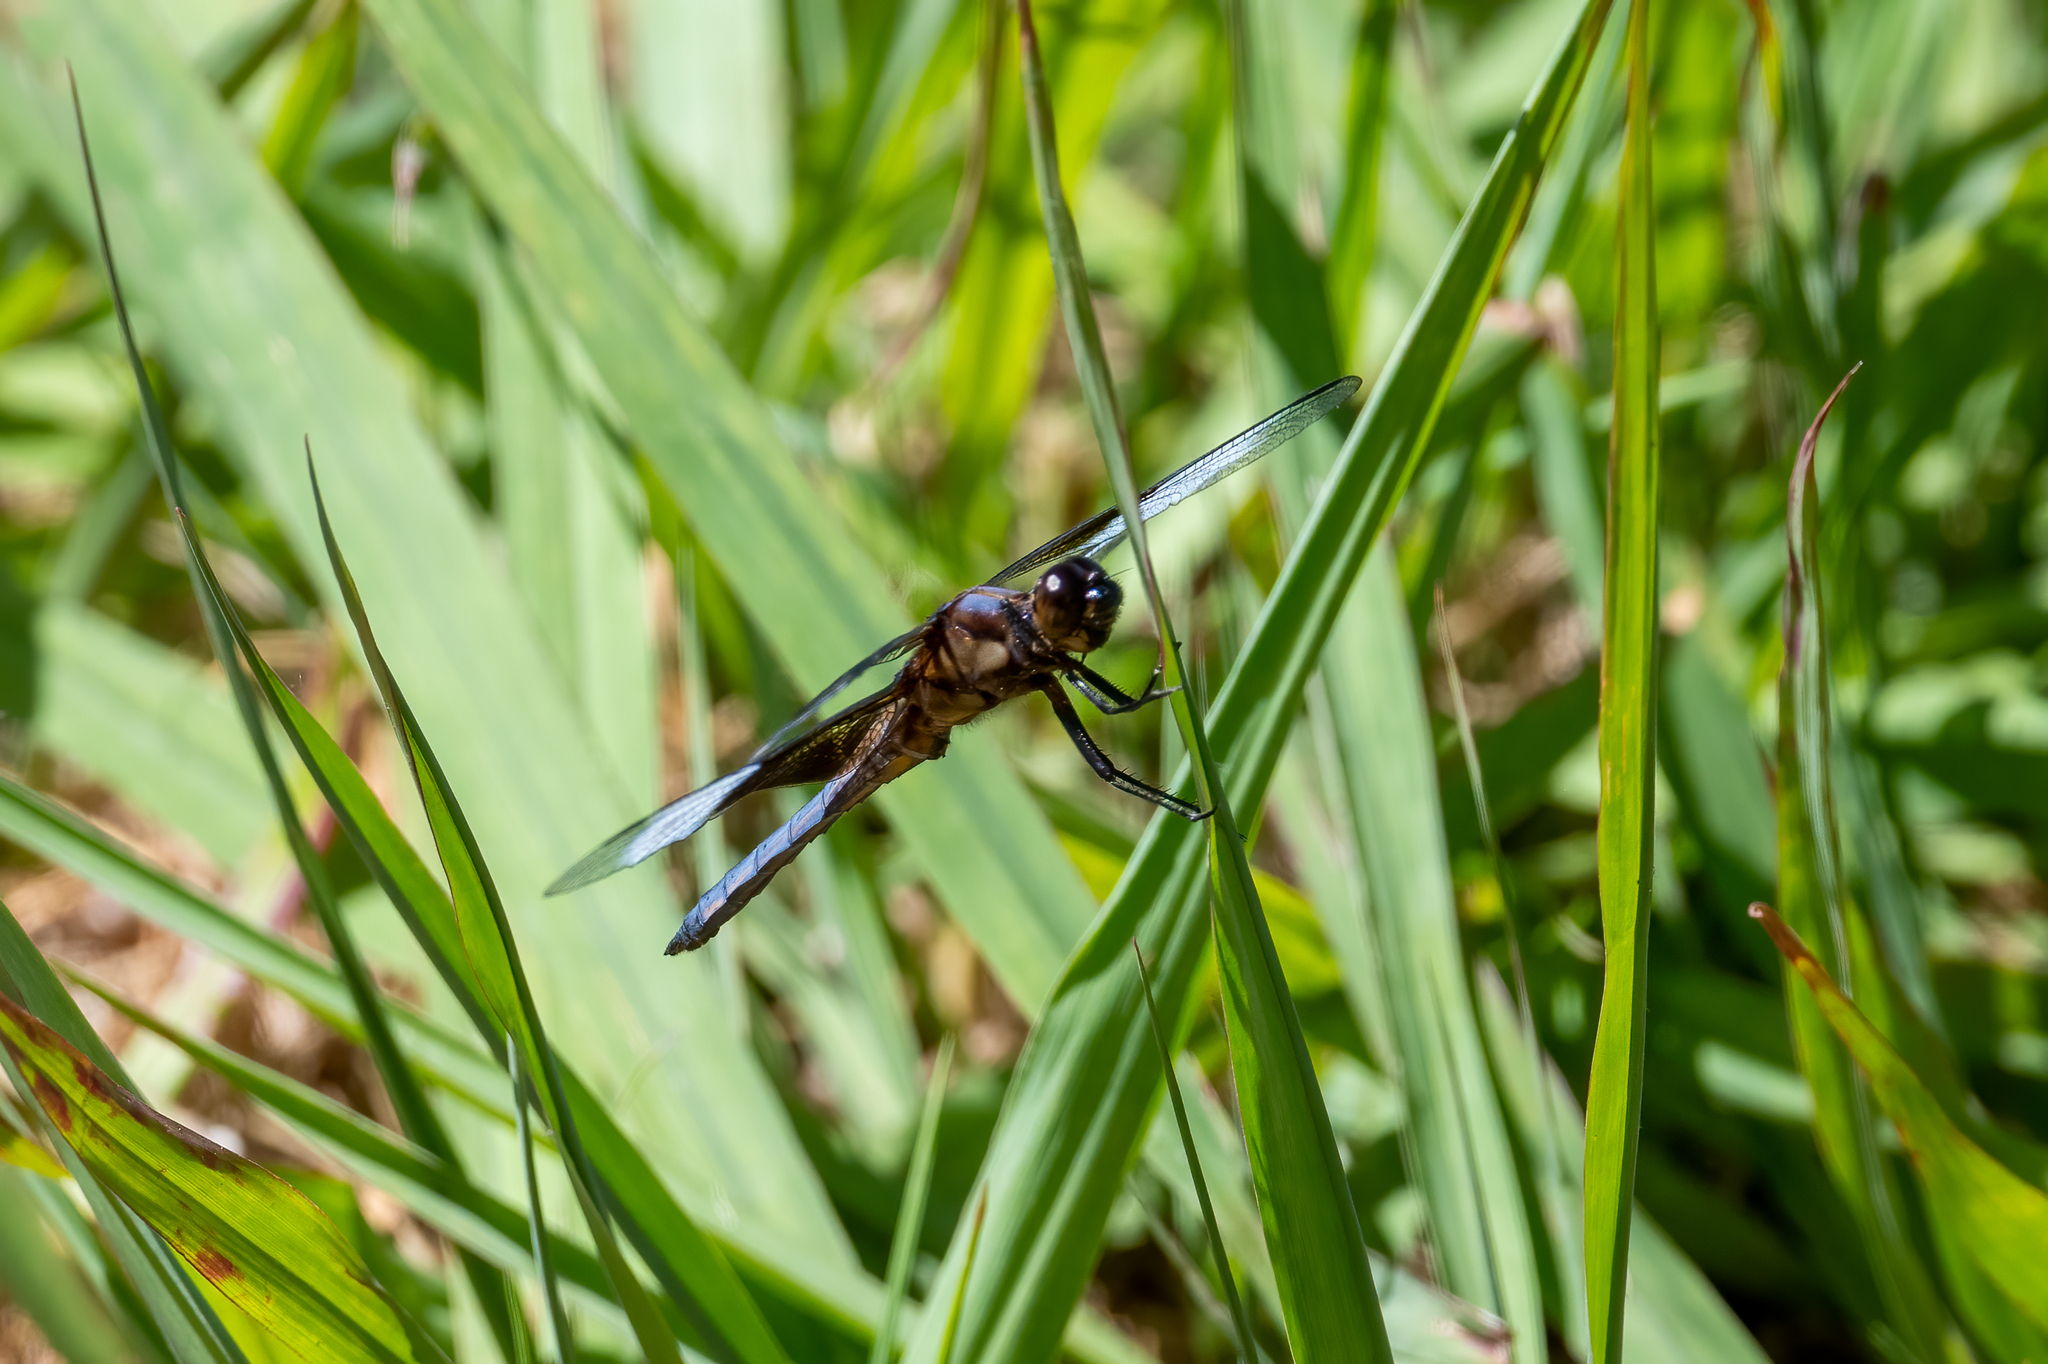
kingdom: Animalia
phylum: Arthropoda
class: Insecta
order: Odonata
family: Libellulidae
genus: Libellula
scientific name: Libellula luctuosa
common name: Widow skimmer
